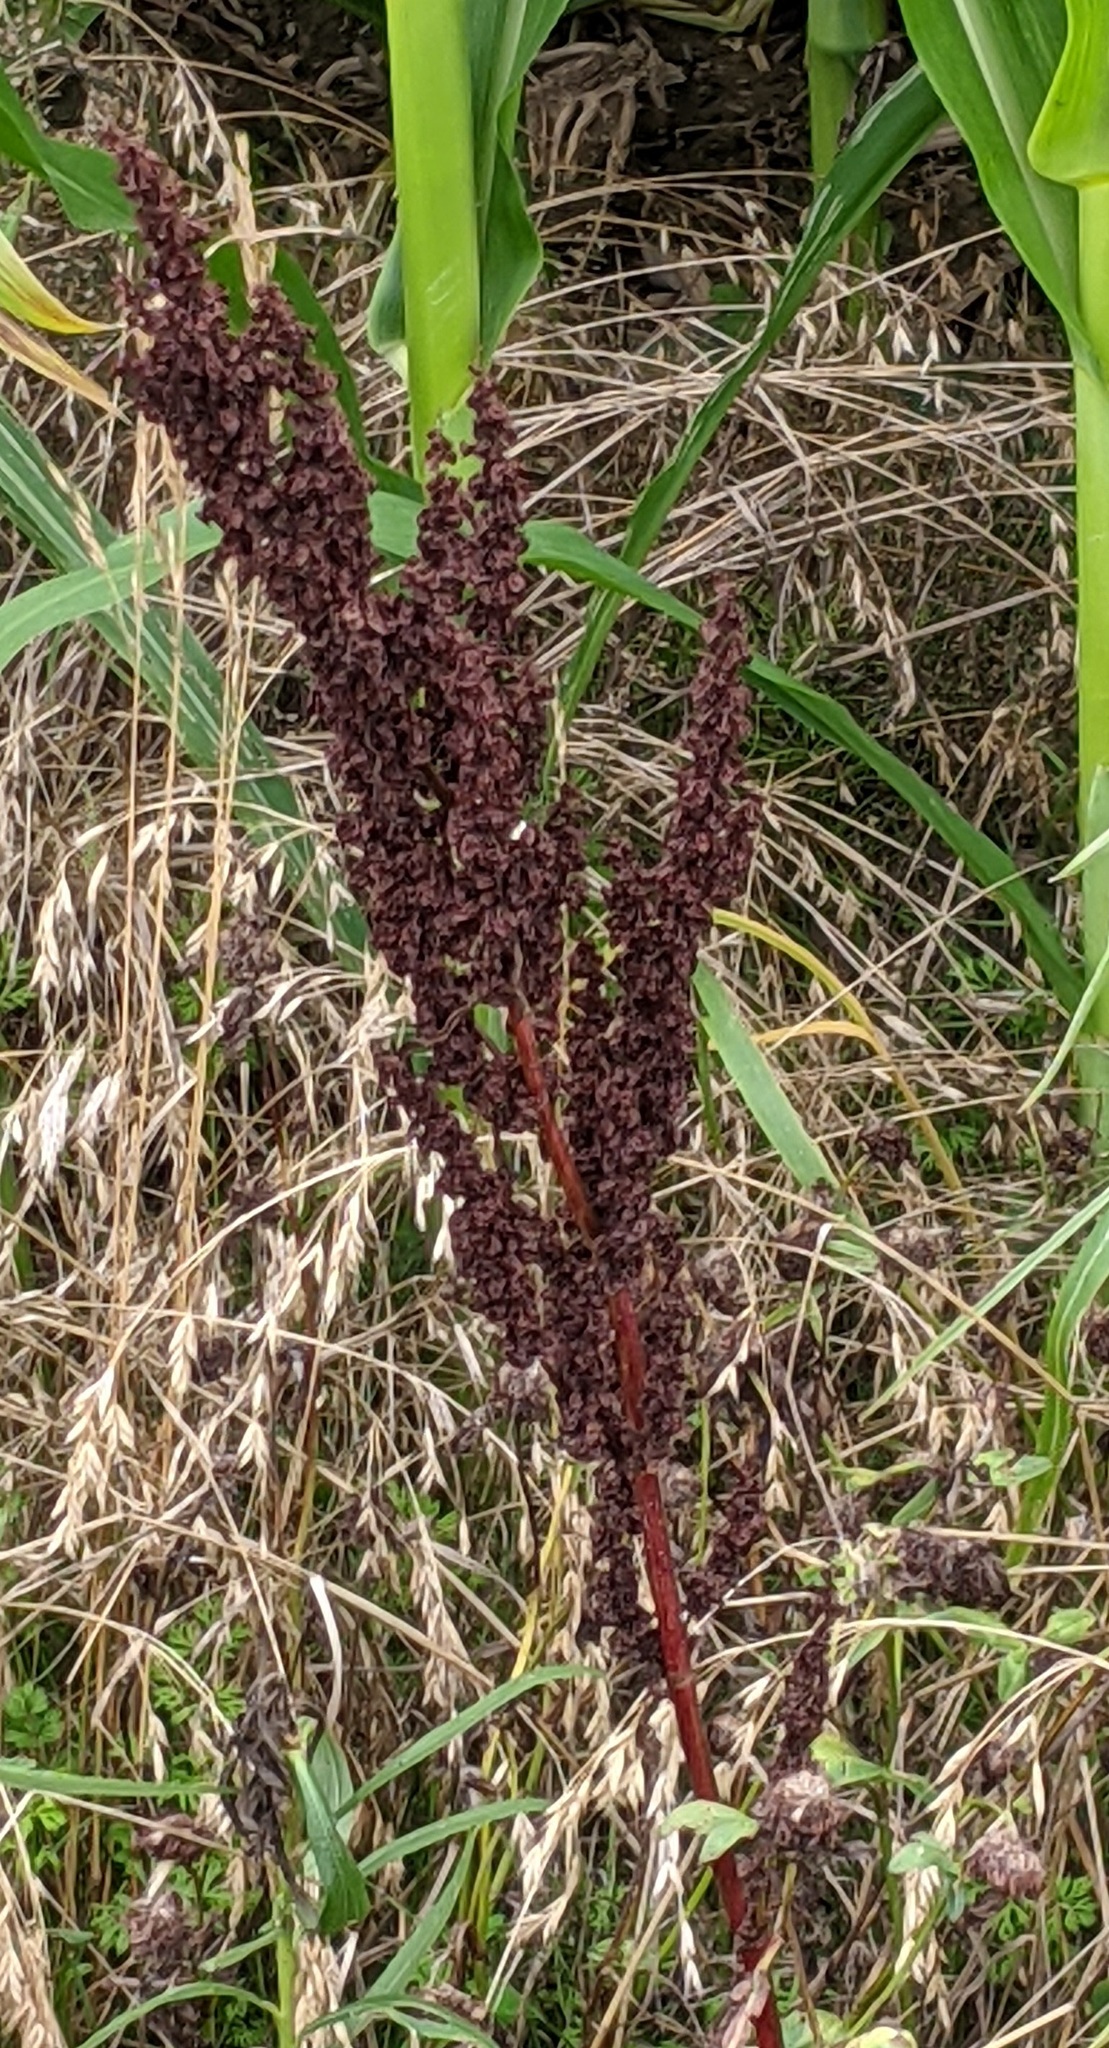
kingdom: Plantae
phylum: Tracheophyta
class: Magnoliopsida
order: Caryophyllales
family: Polygonaceae
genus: Rumex
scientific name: Rumex crispus
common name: Curled dock
